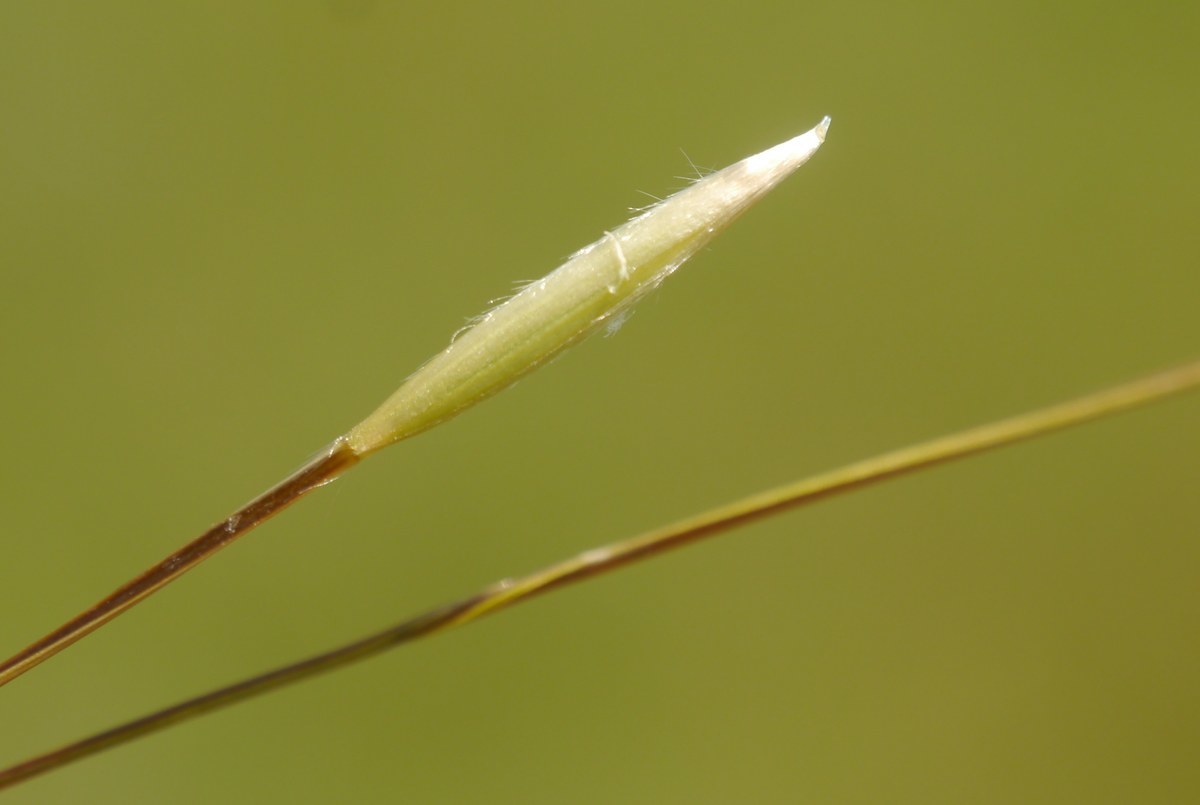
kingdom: Plantae
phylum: Tracheophyta
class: Liliopsida
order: Poales
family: Poaceae
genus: Stipa
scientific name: Stipa lessingiana
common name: Needle grass
